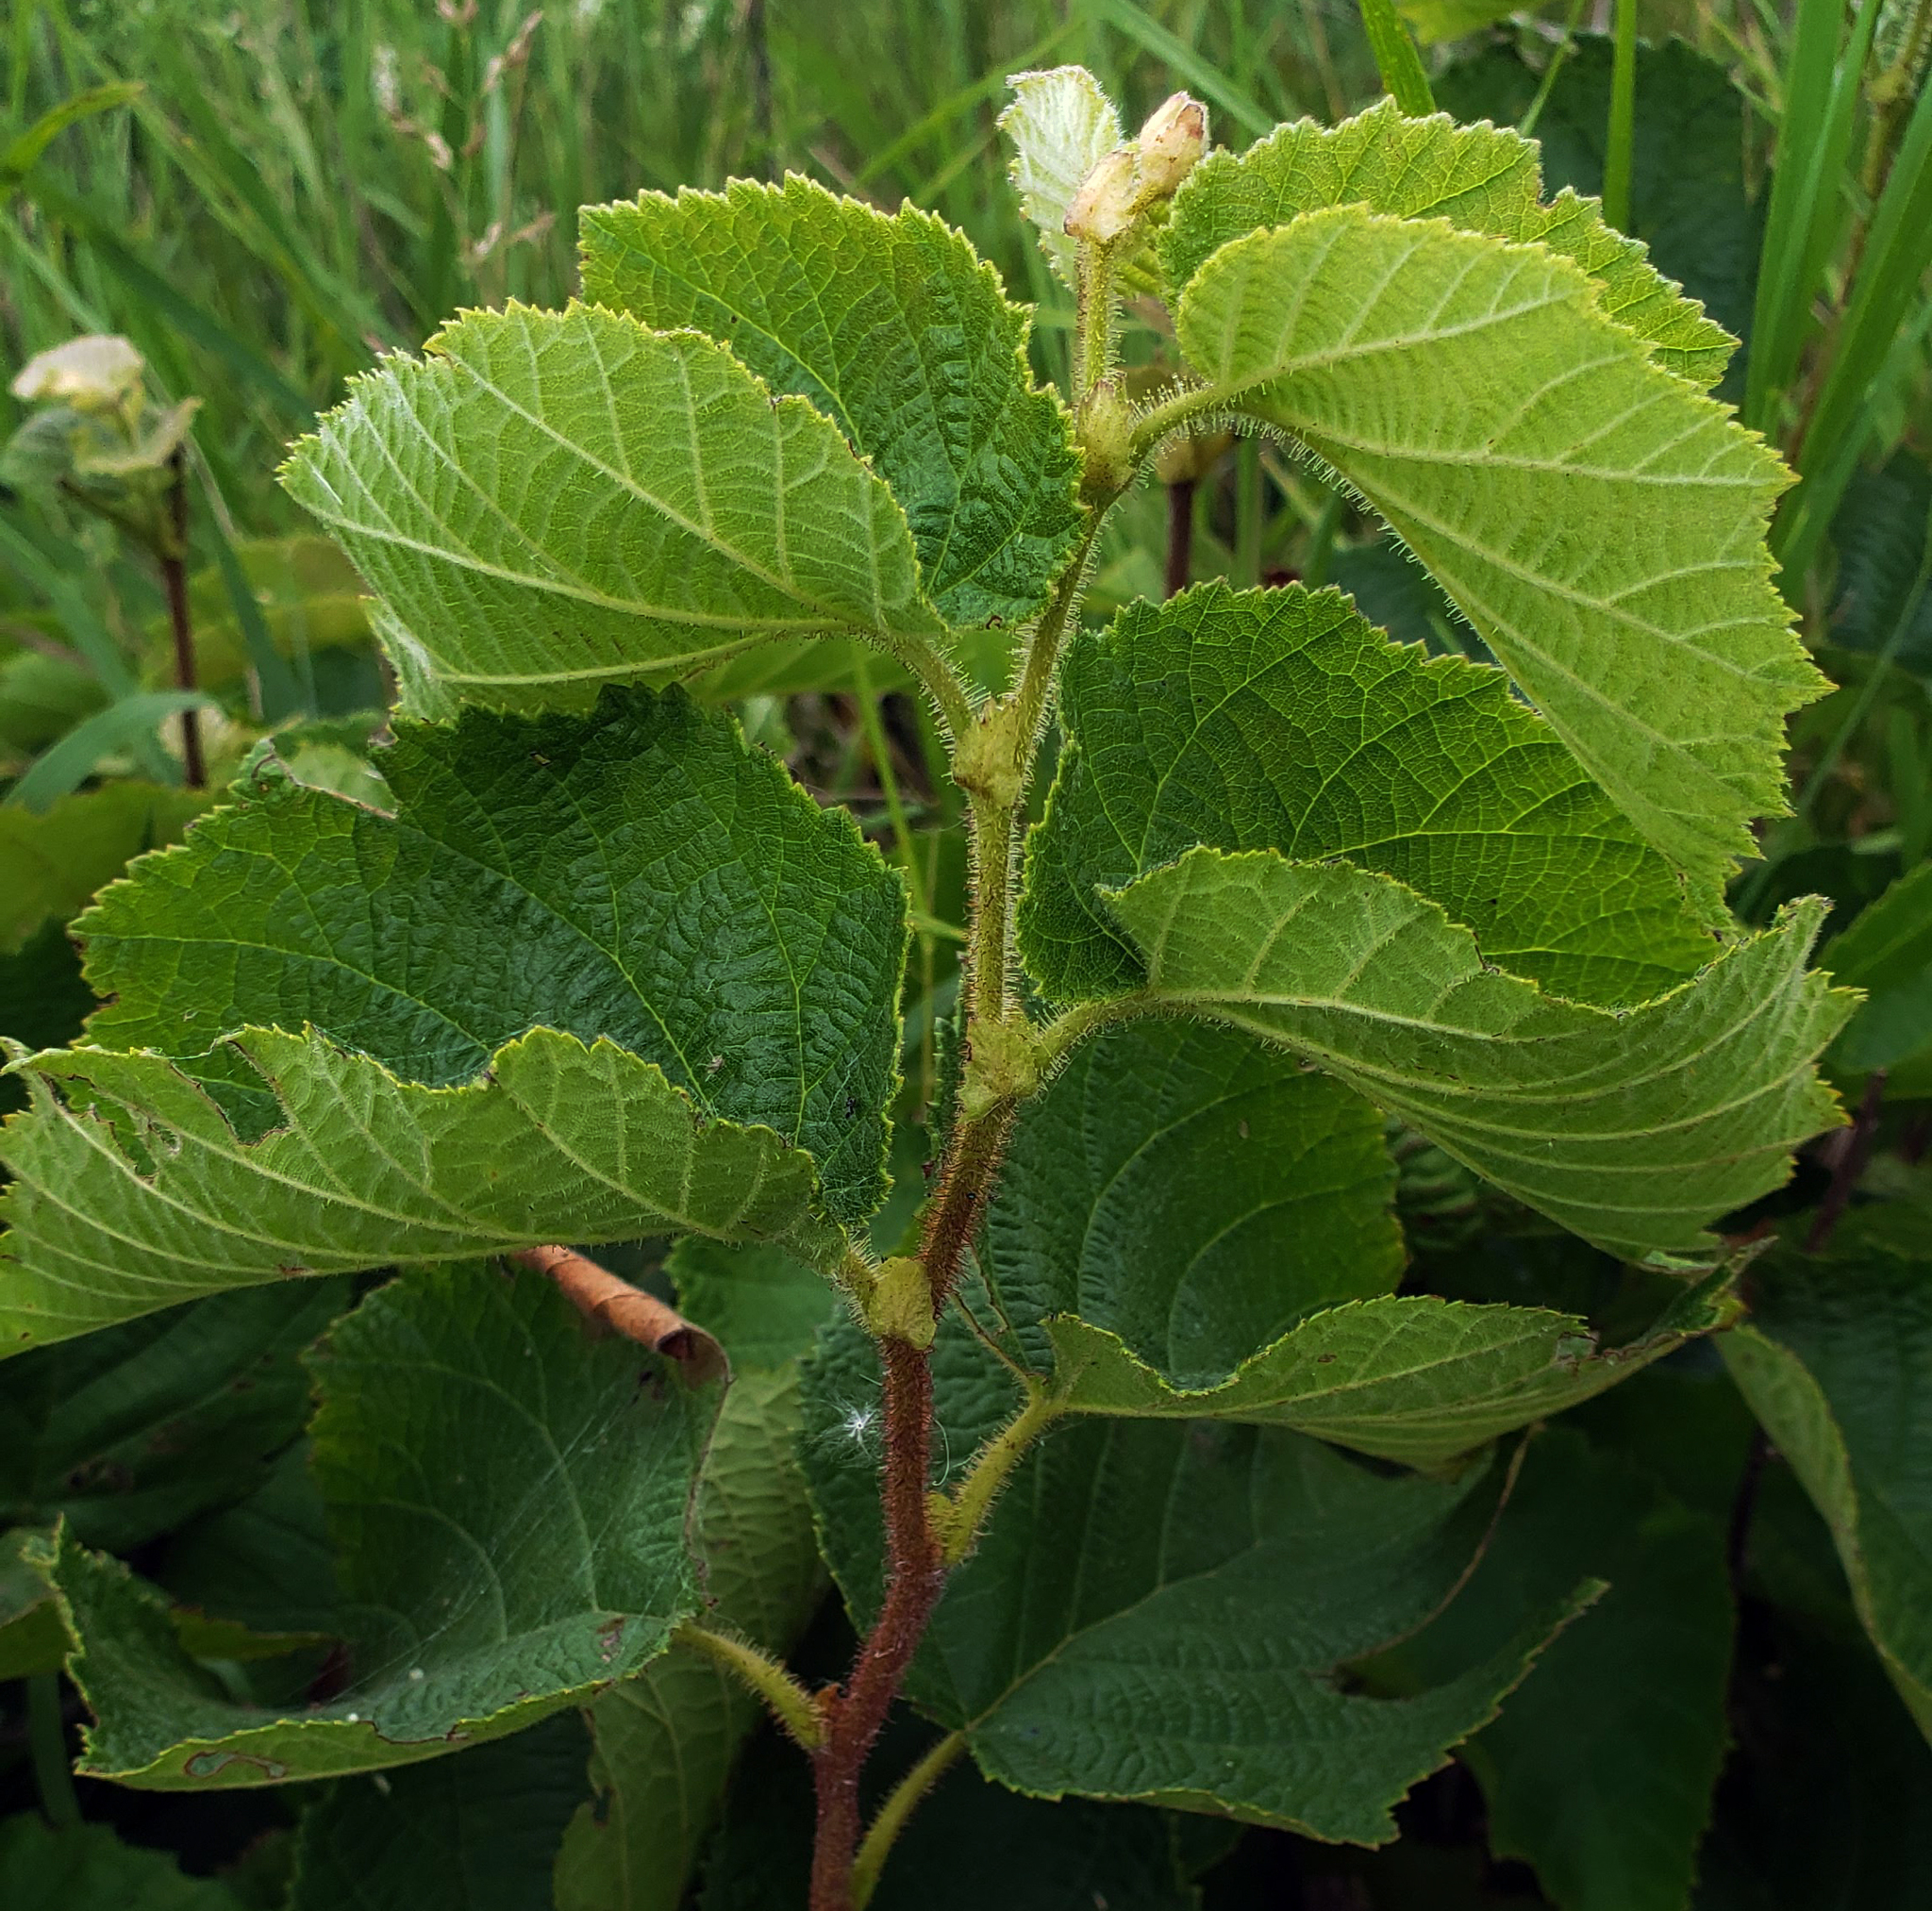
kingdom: Plantae
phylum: Tracheophyta
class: Magnoliopsida
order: Fagales
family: Betulaceae
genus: Corylus
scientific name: Corylus americana
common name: American hazel
